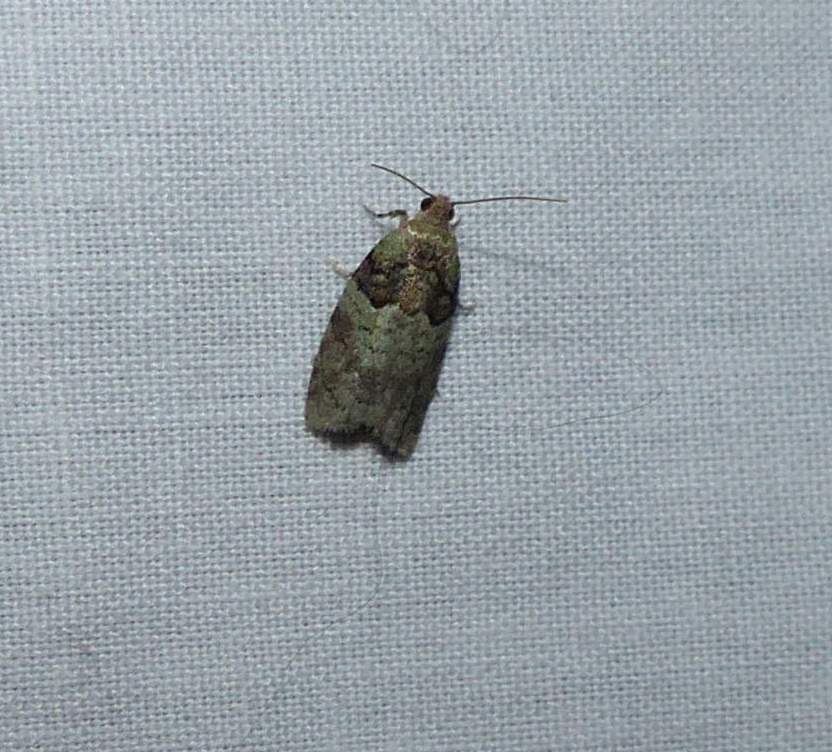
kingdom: Animalia
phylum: Arthropoda
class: Insecta
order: Lepidoptera
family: Tortricidae
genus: Epinotia
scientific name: Epinotia medioviridana
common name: Raspberry leaf-roller moth
